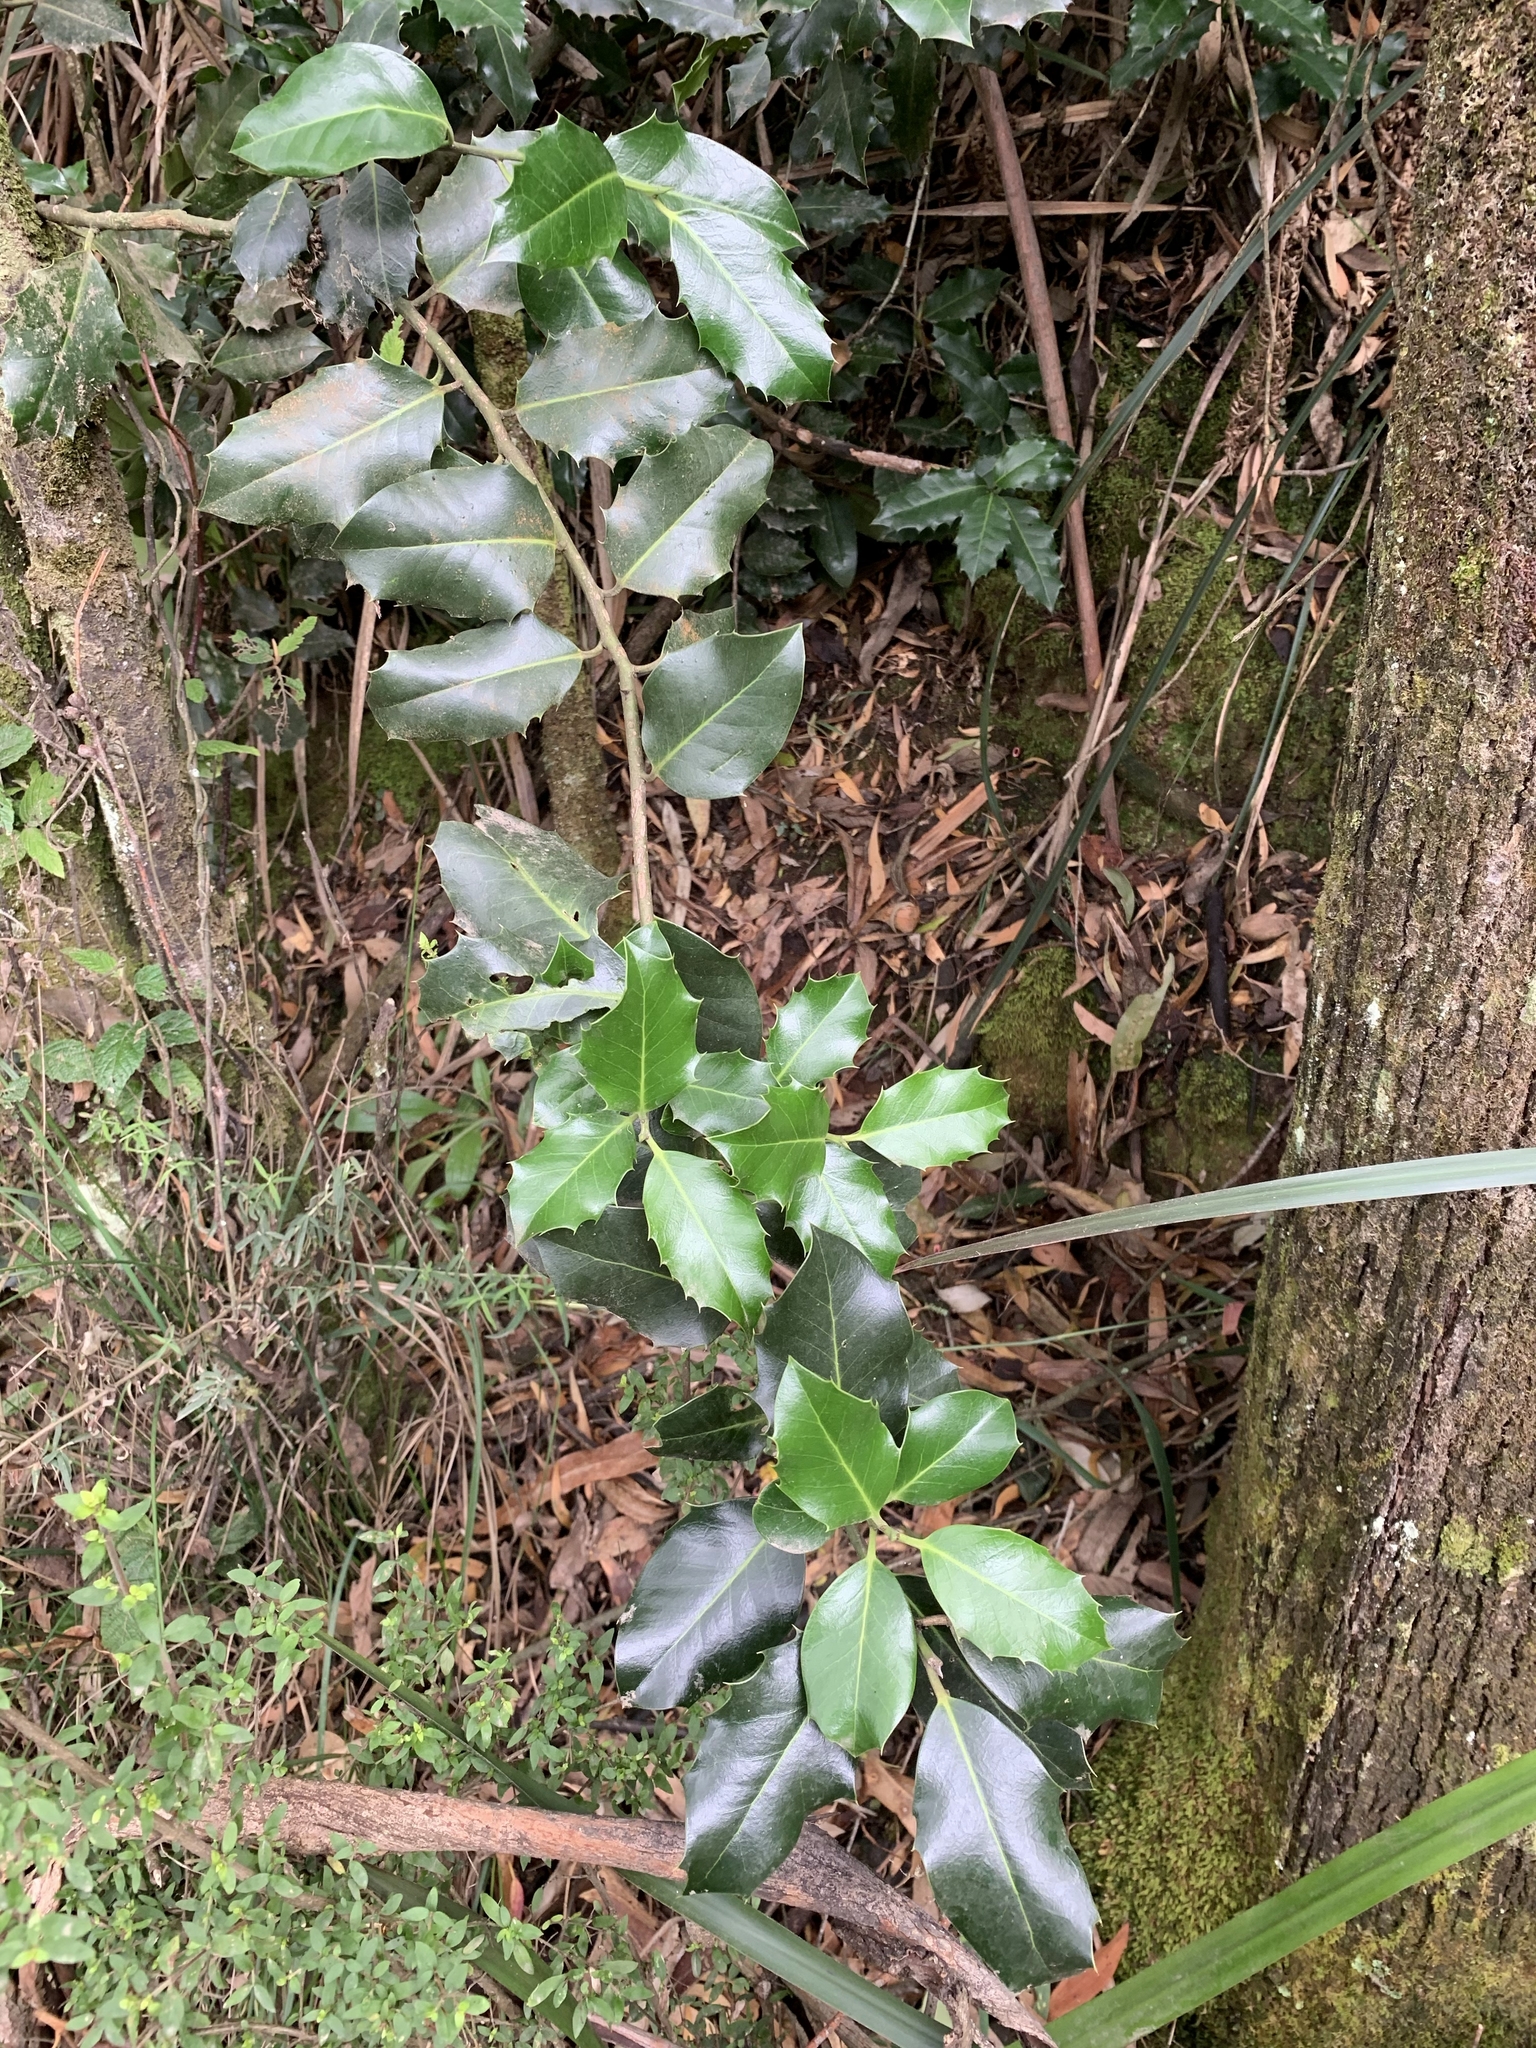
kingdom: Plantae
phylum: Tracheophyta
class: Magnoliopsida
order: Aquifoliales
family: Aquifoliaceae
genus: Ilex
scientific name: Ilex aquifolium
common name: English holly
